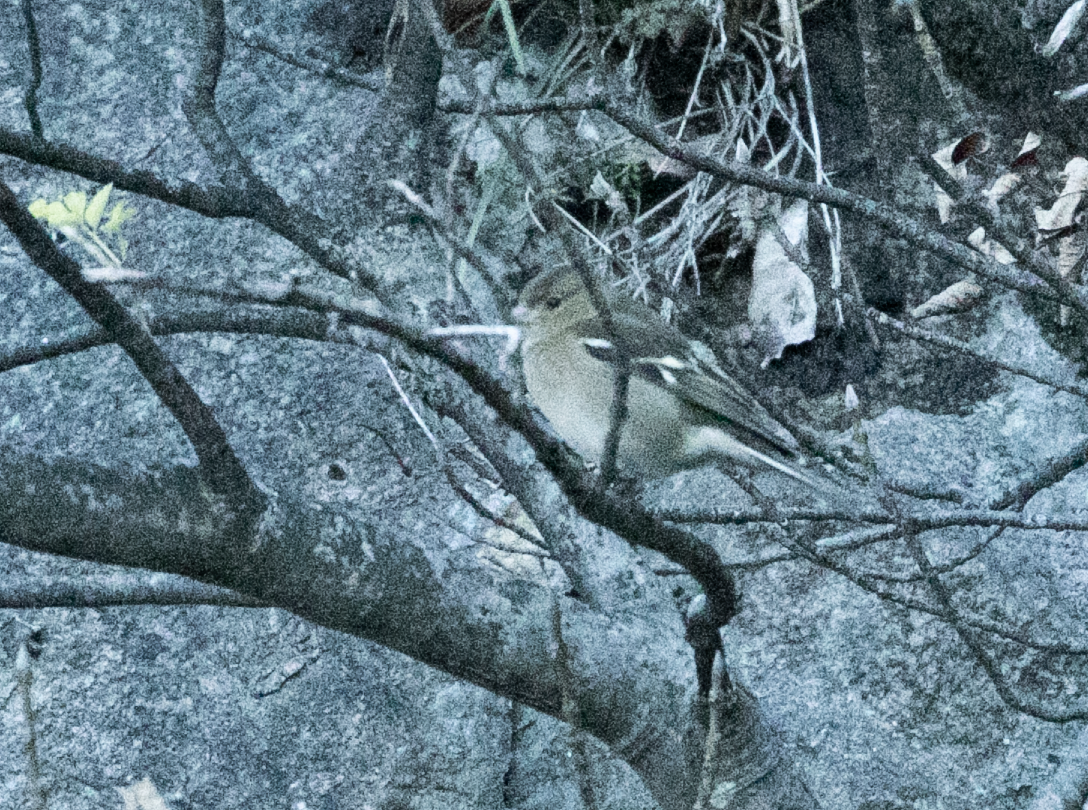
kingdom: Animalia
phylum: Chordata
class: Aves
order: Passeriformes
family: Fringillidae
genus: Fringilla
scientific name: Fringilla coelebs
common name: Common chaffinch
